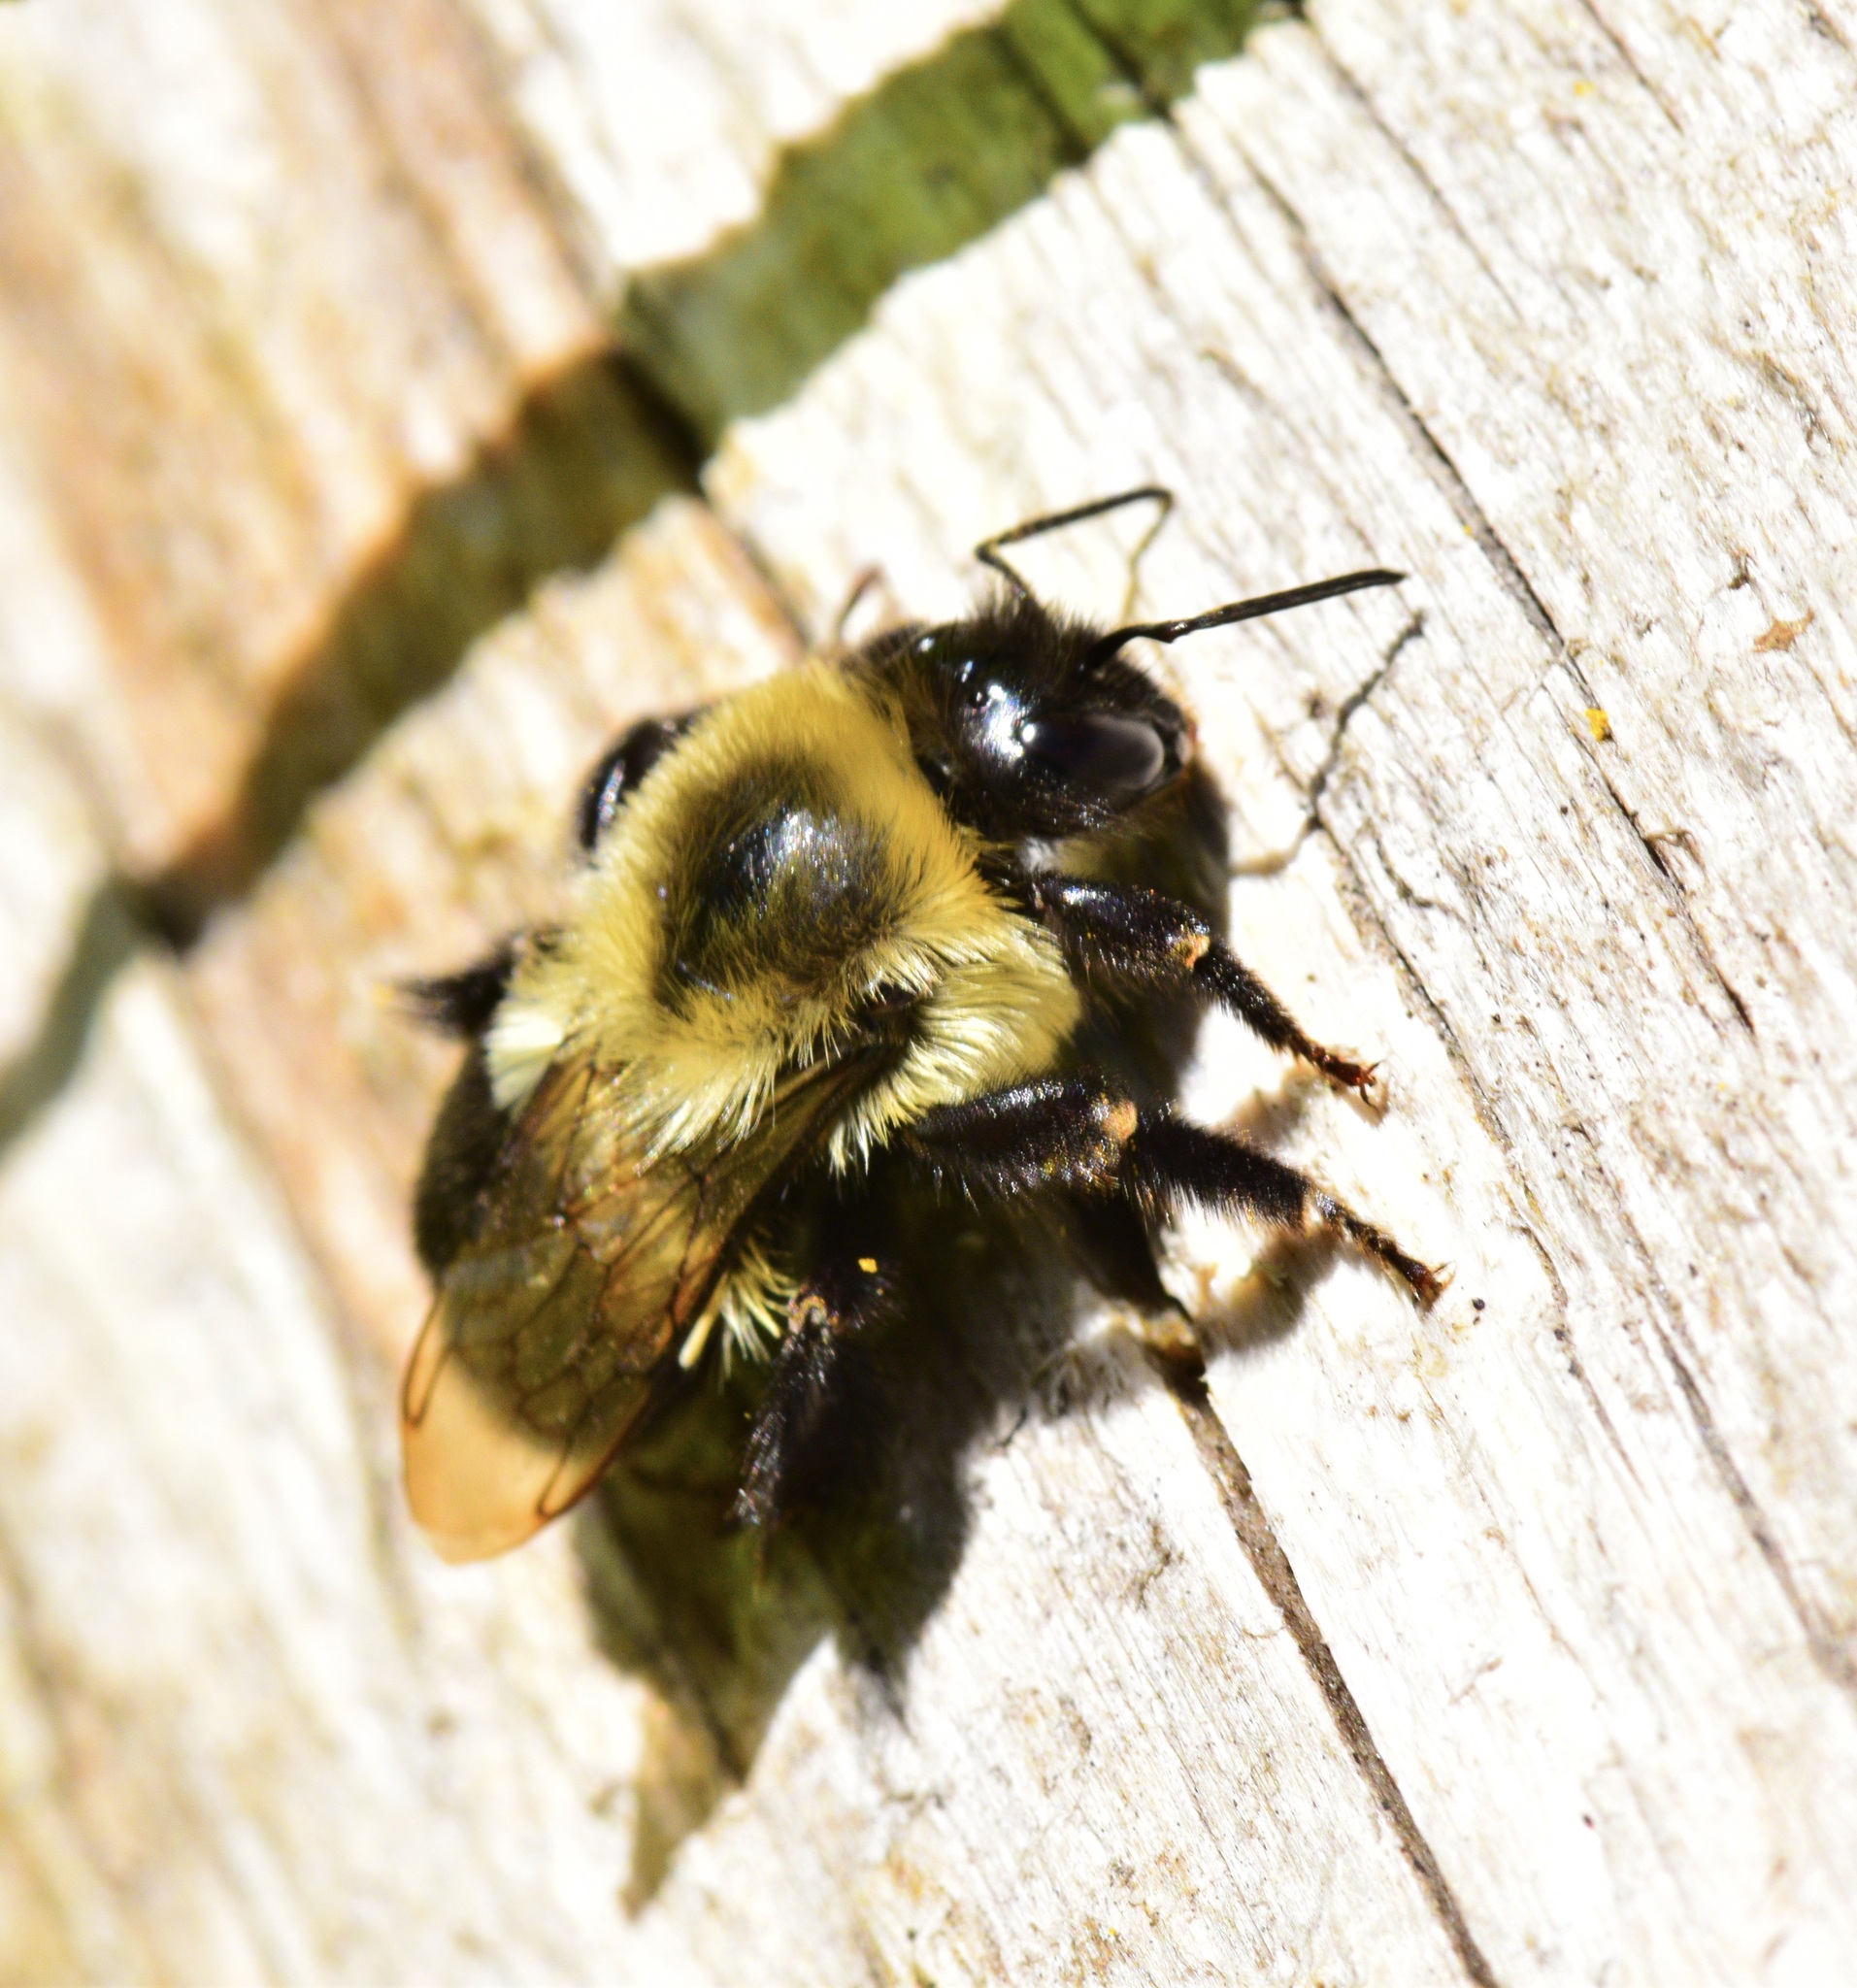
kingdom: Animalia
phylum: Arthropoda
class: Insecta
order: Hymenoptera
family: Apidae
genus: Bombus
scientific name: Bombus impatiens
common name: Common eastern bumble bee
